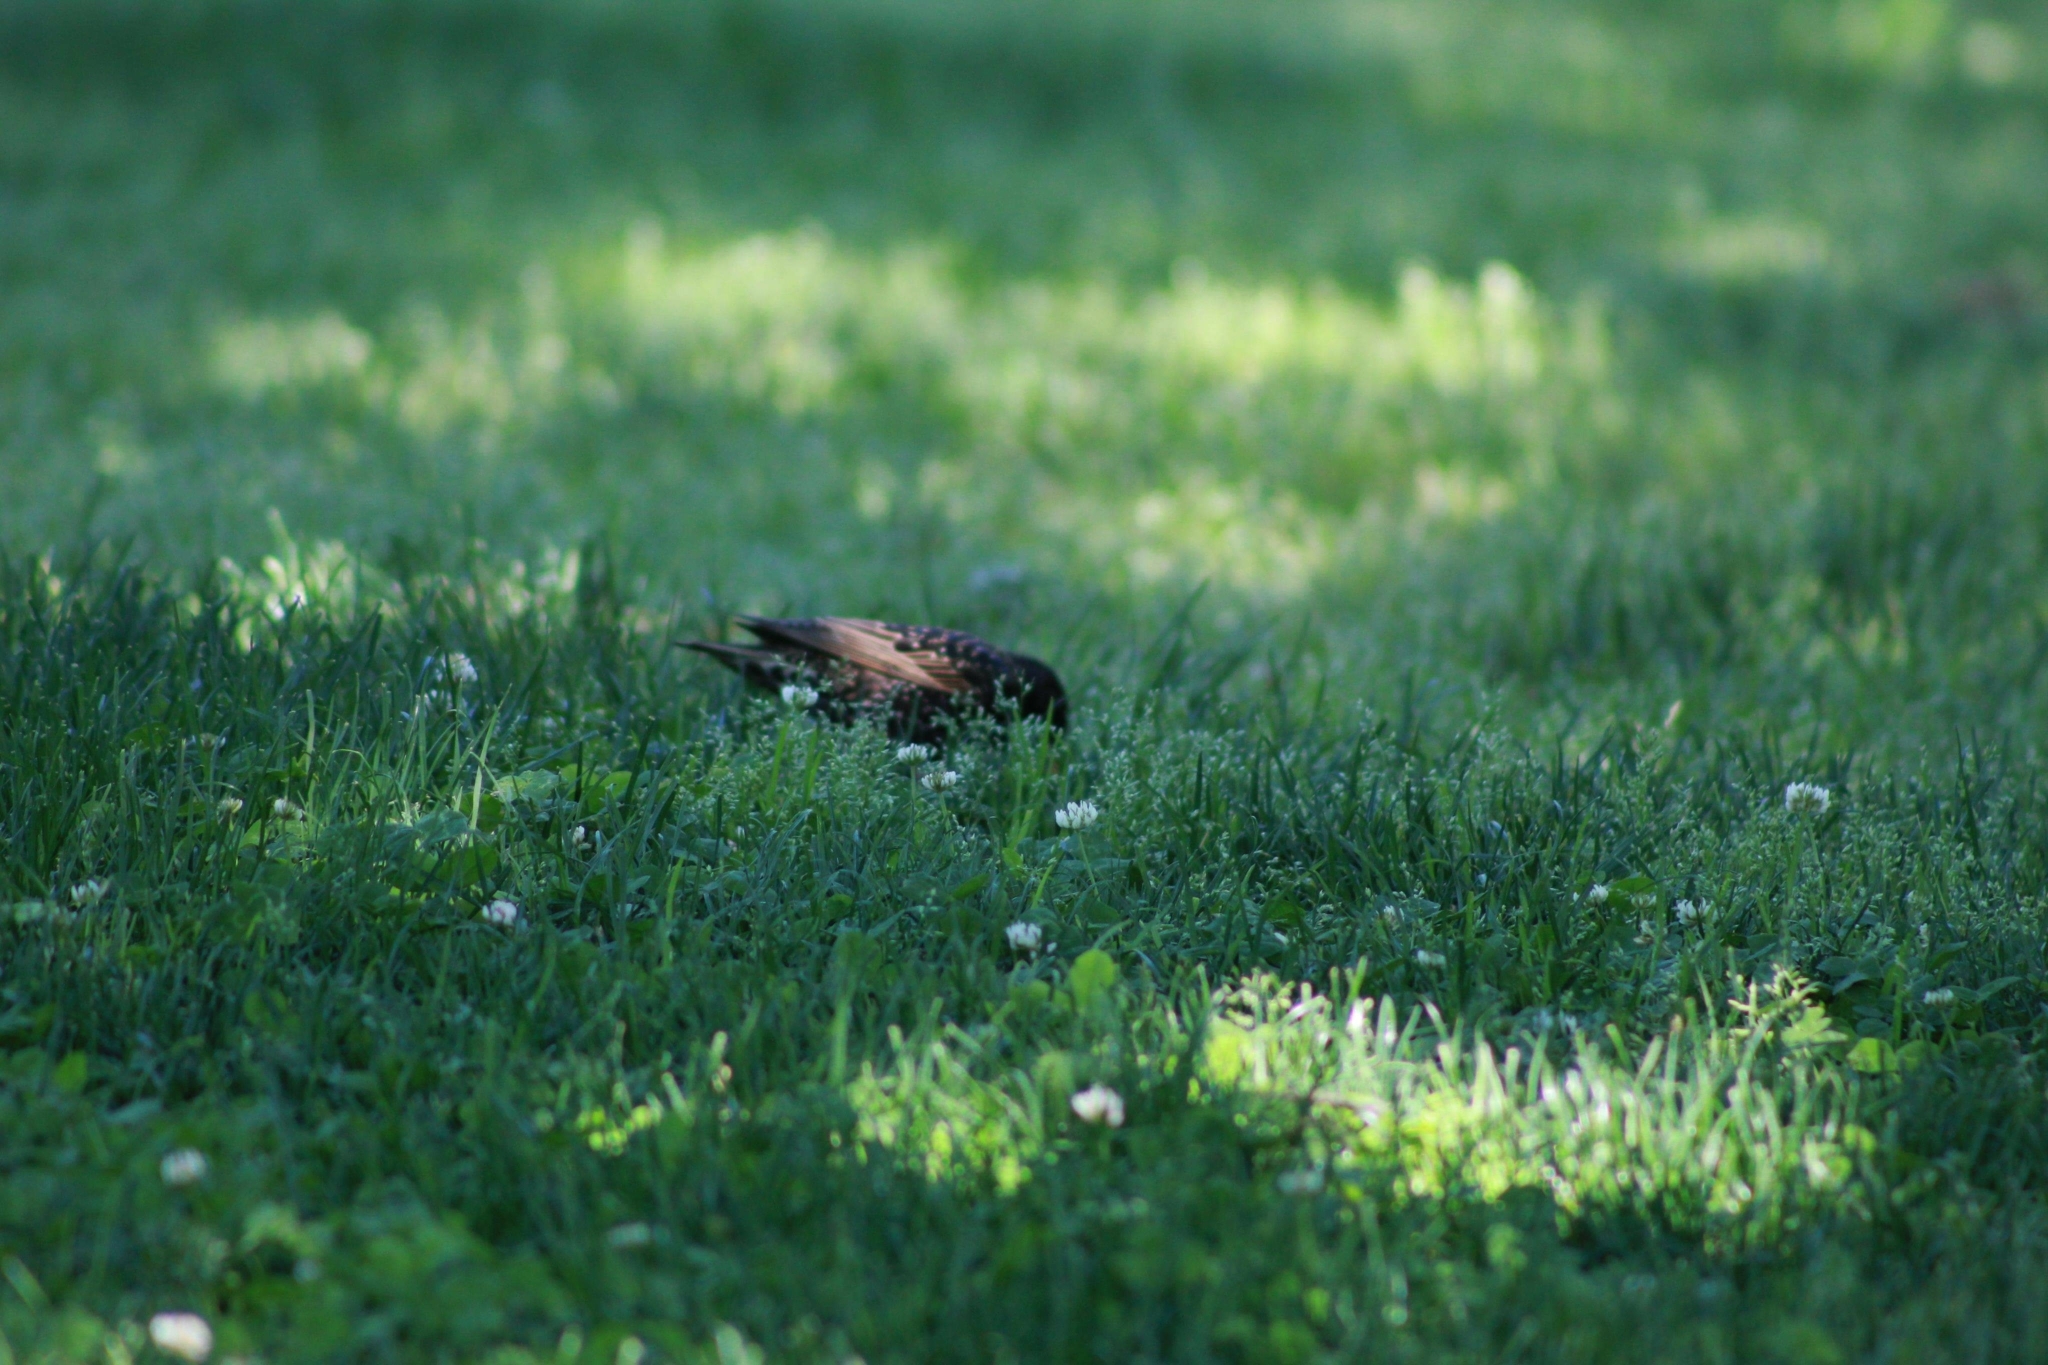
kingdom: Animalia
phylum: Chordata
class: Aves
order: Passeriformes
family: Sturnidae
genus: Sturnus
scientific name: Sturnus vulgaris
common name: Common starling
